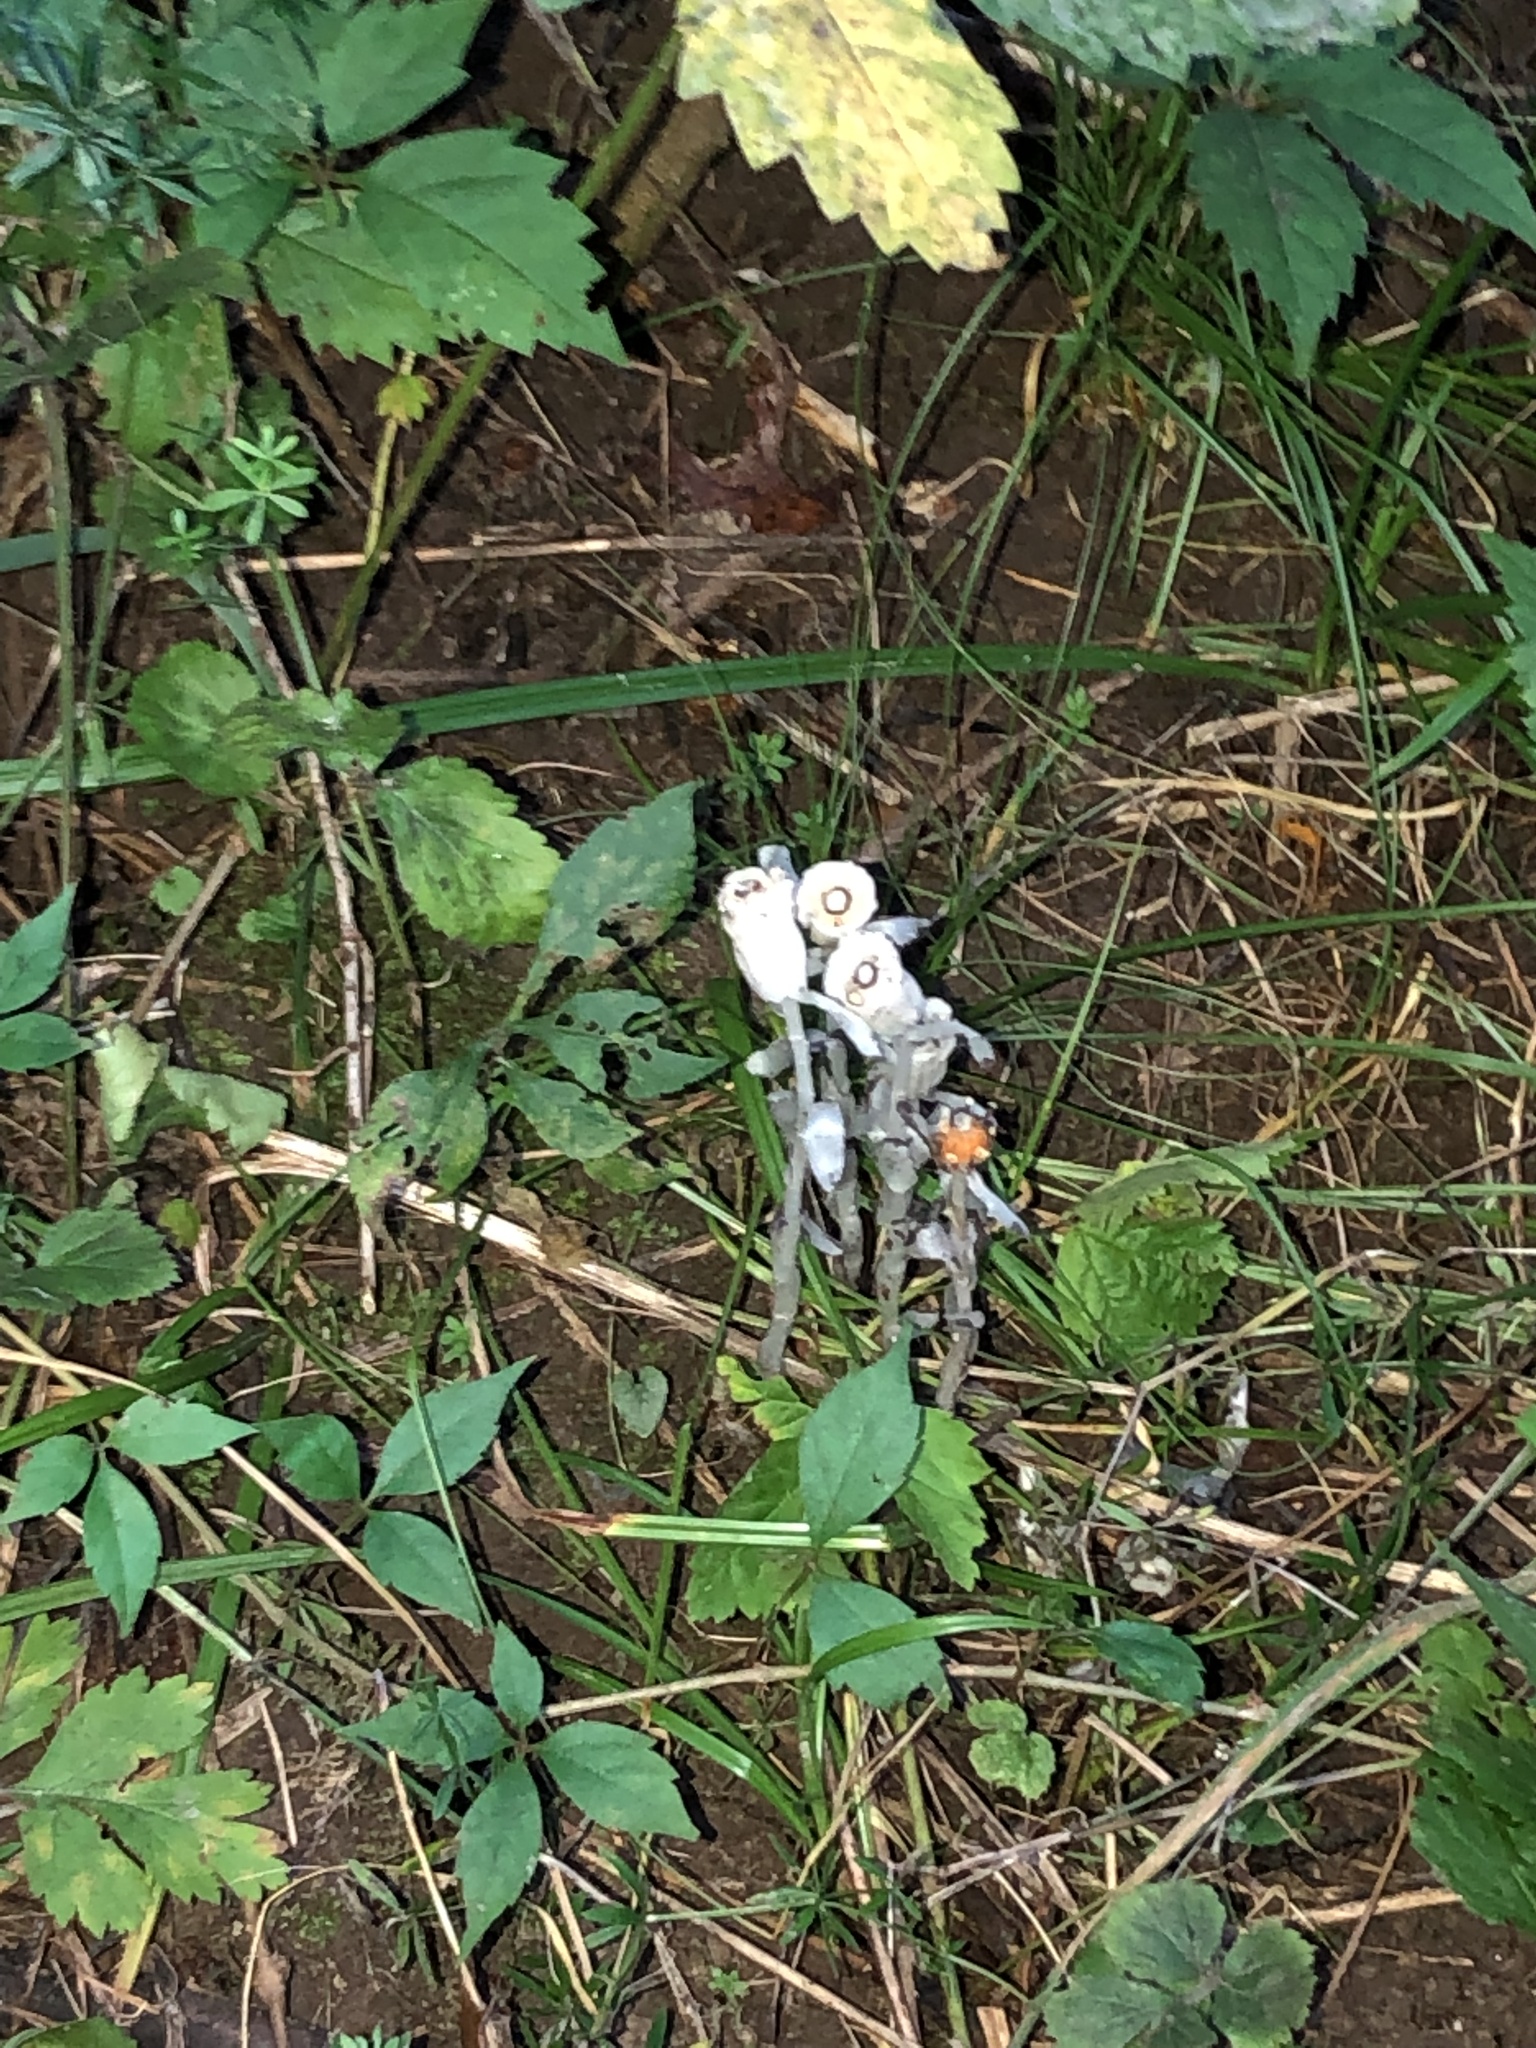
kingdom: Plantae
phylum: Tracheophyta
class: Magnoliopsida
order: Ericales
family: Ericaceae
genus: Monotropa
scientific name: Monotropa uniflora
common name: Convulsion root
